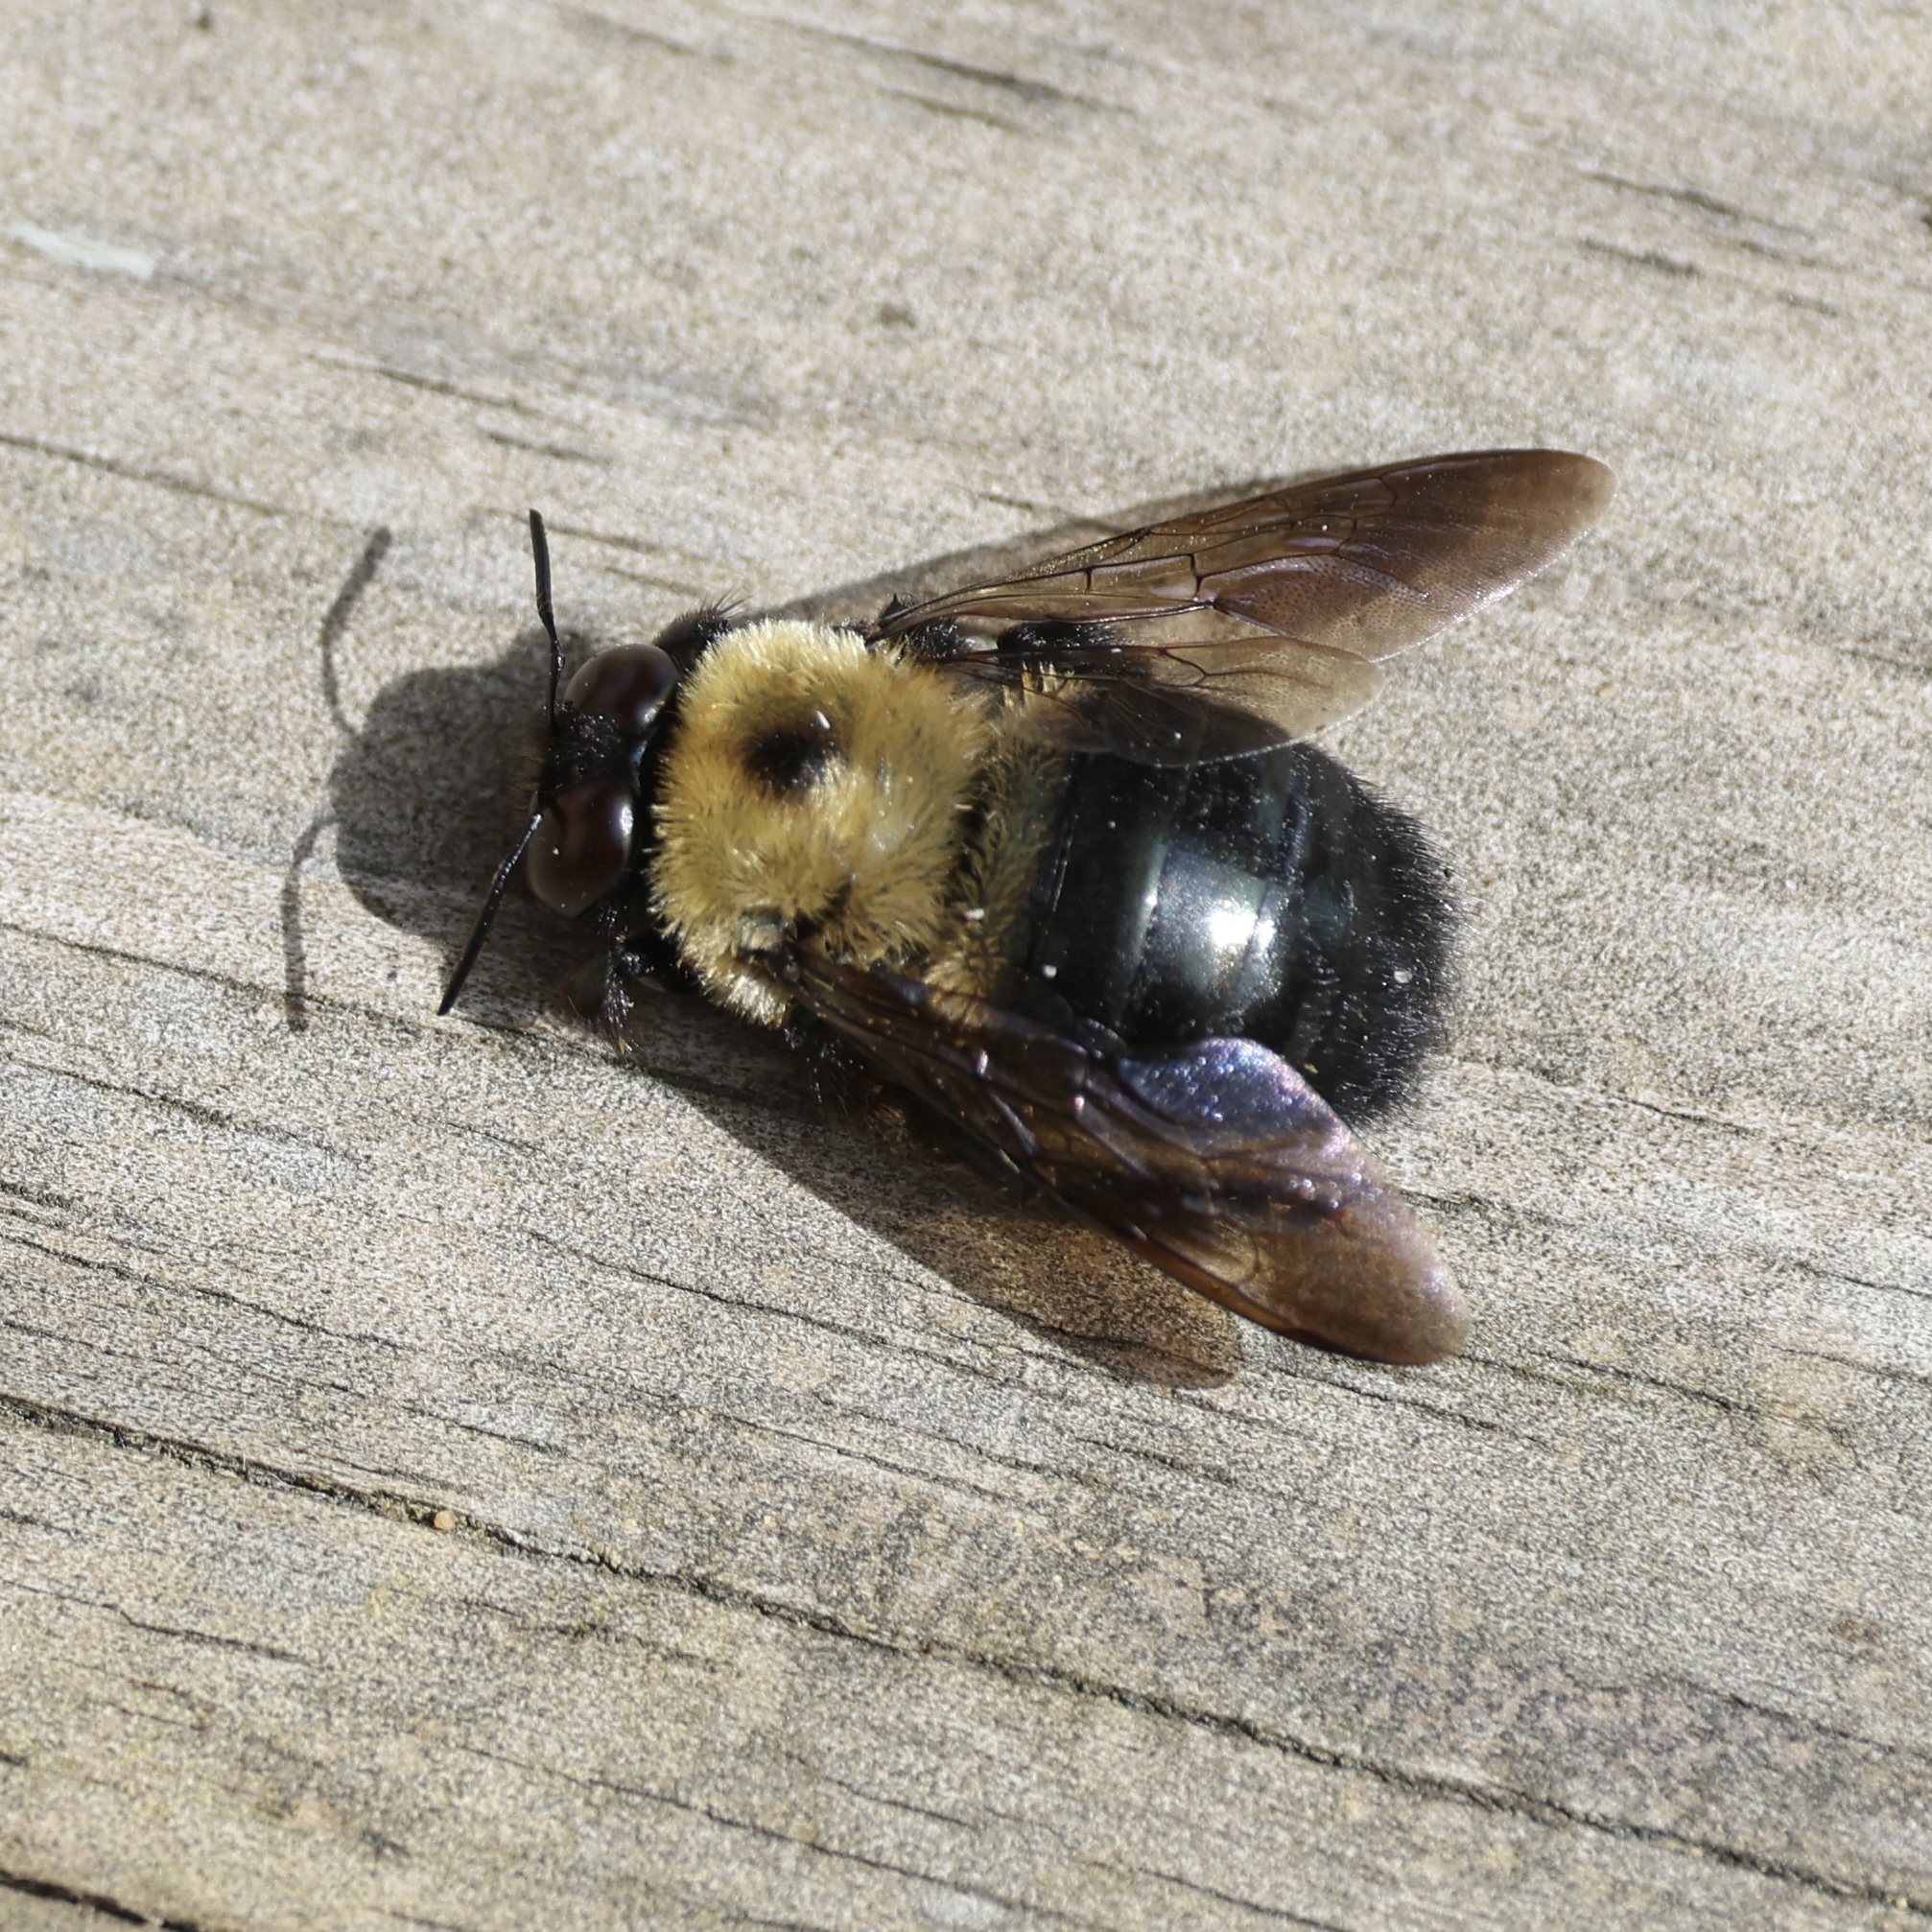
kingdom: Animalia
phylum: Arthropoda
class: Insecta
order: Hymenoptera
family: Apidae
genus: Xylocopa
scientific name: Xylocopa virginica
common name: Carpenter bee
